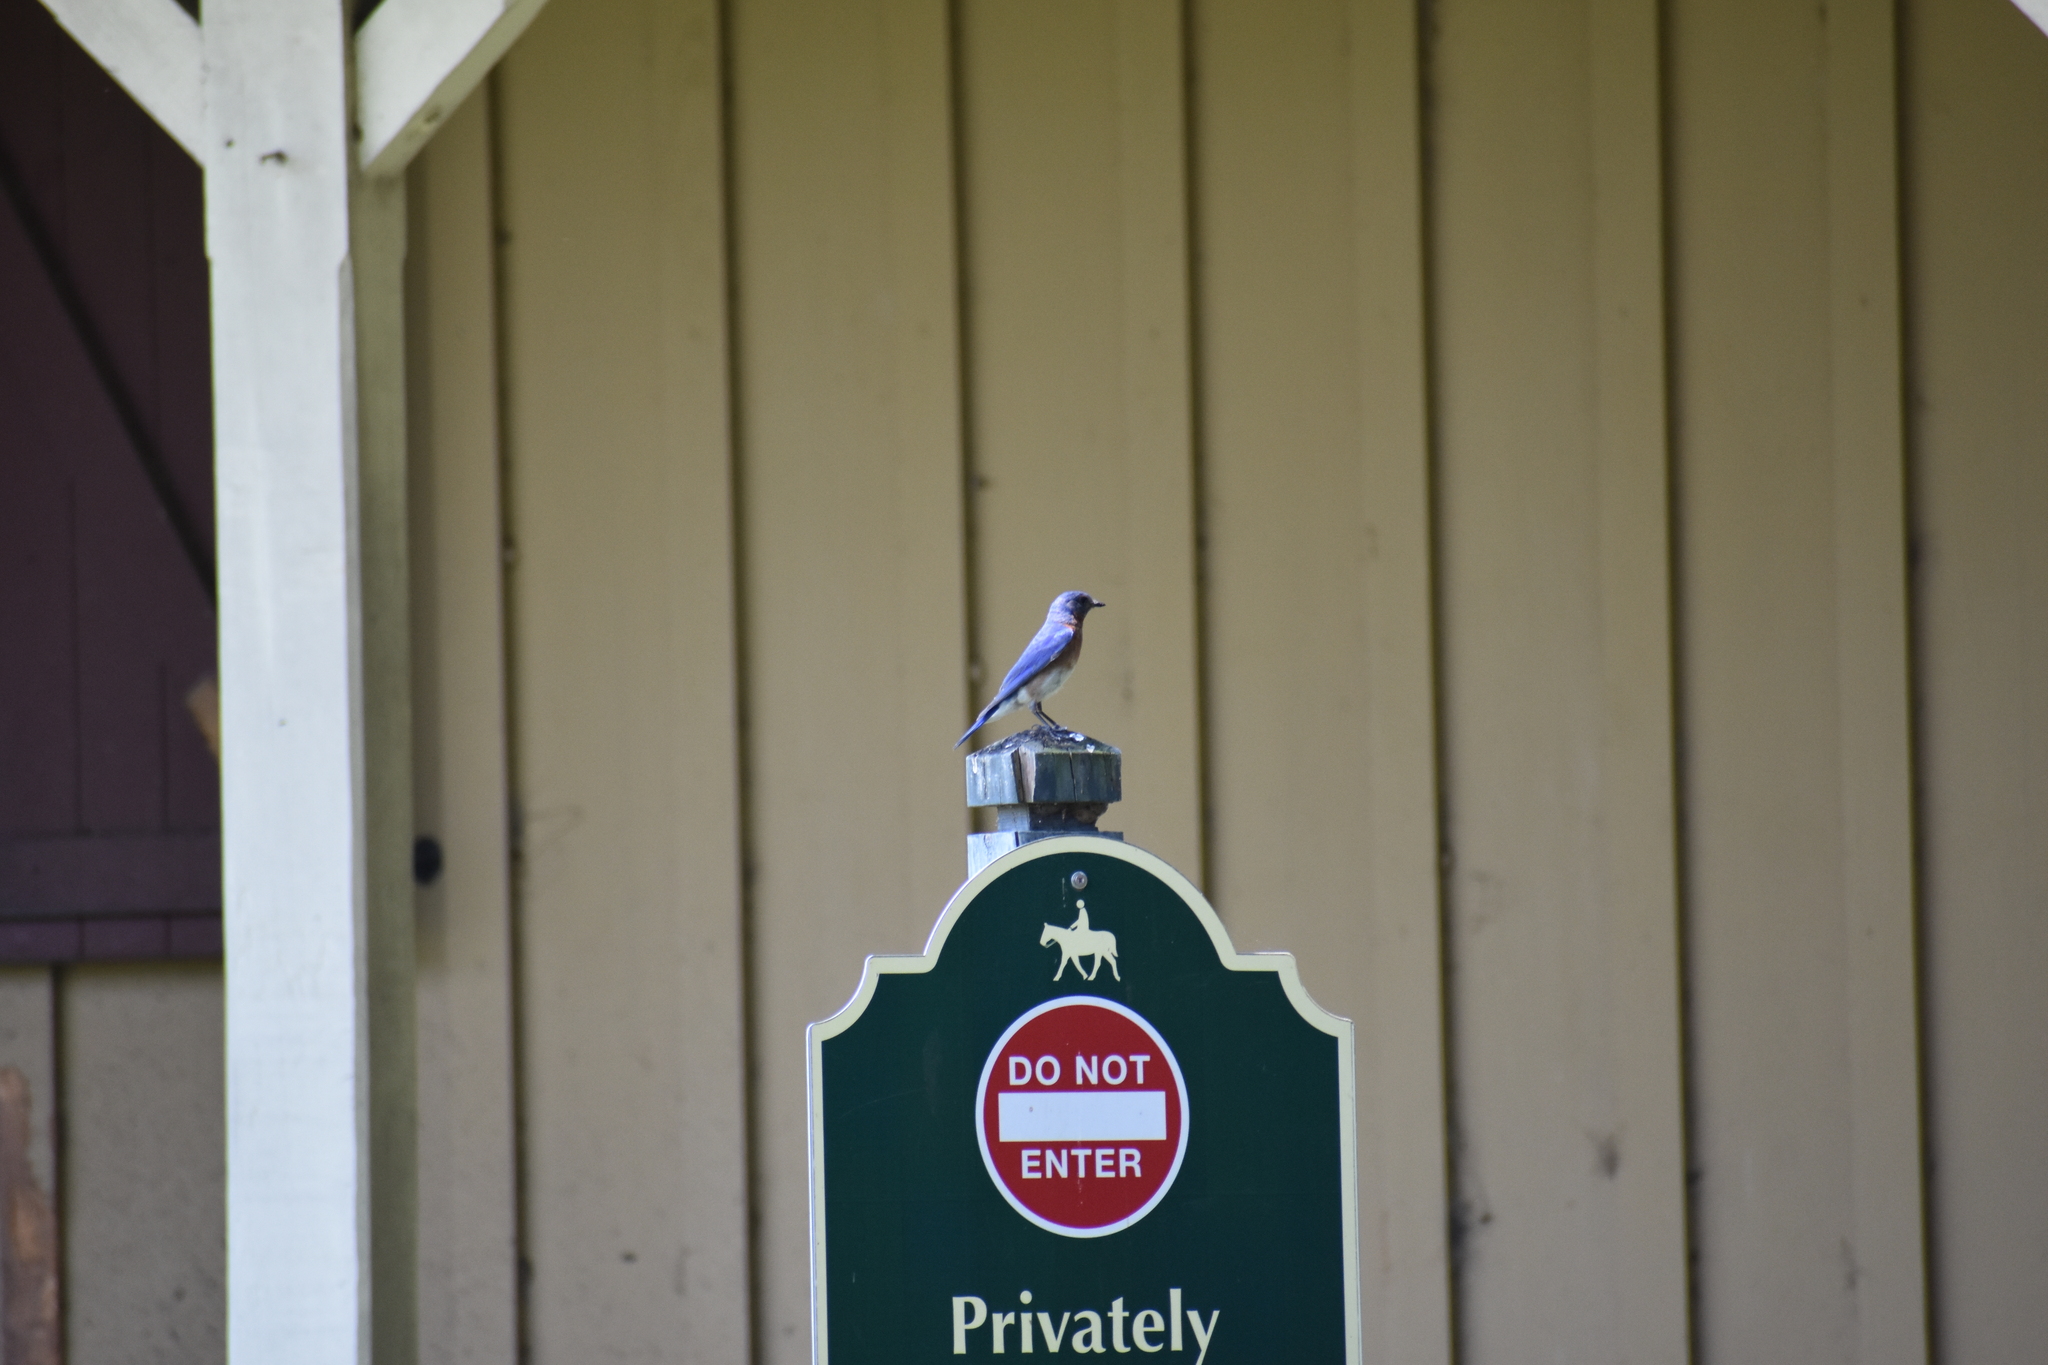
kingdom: Animalia
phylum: Chordata
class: Aves
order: Passeriformes
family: Turdidae
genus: Sialia
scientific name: Sialia sialis
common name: Eastern bluebird
